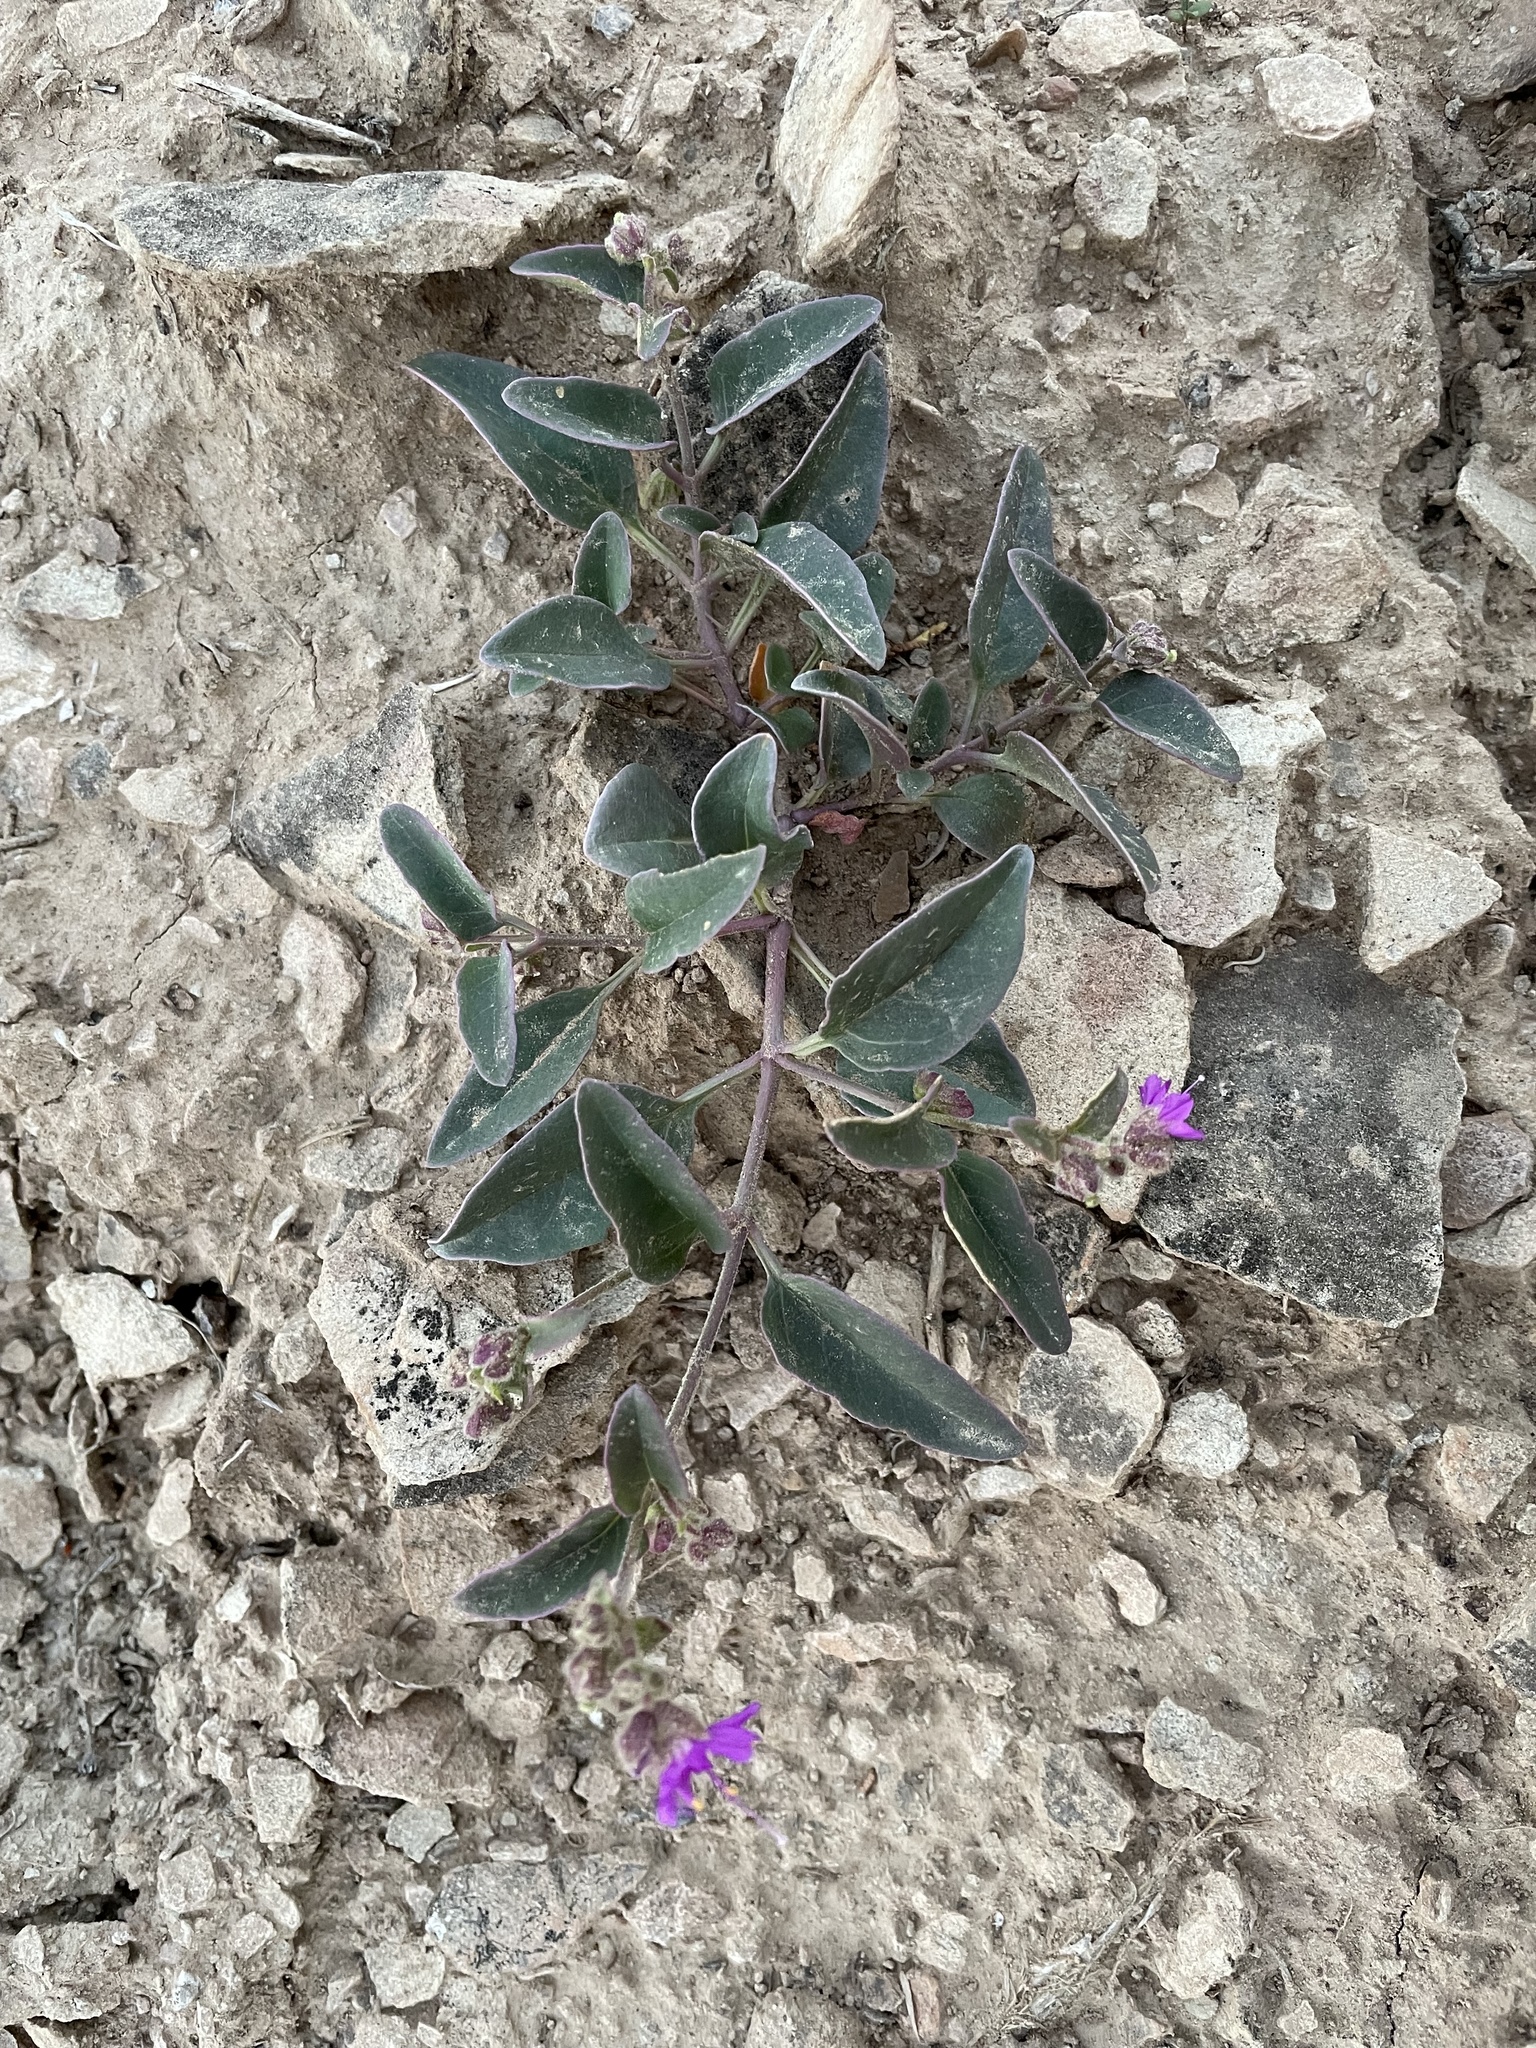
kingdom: Plantae
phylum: Tracheophyta
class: Magnoliopsida
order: Caryophyllales
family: Nyctaginaceae
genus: Mirabilis
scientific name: Mirabilis comata
